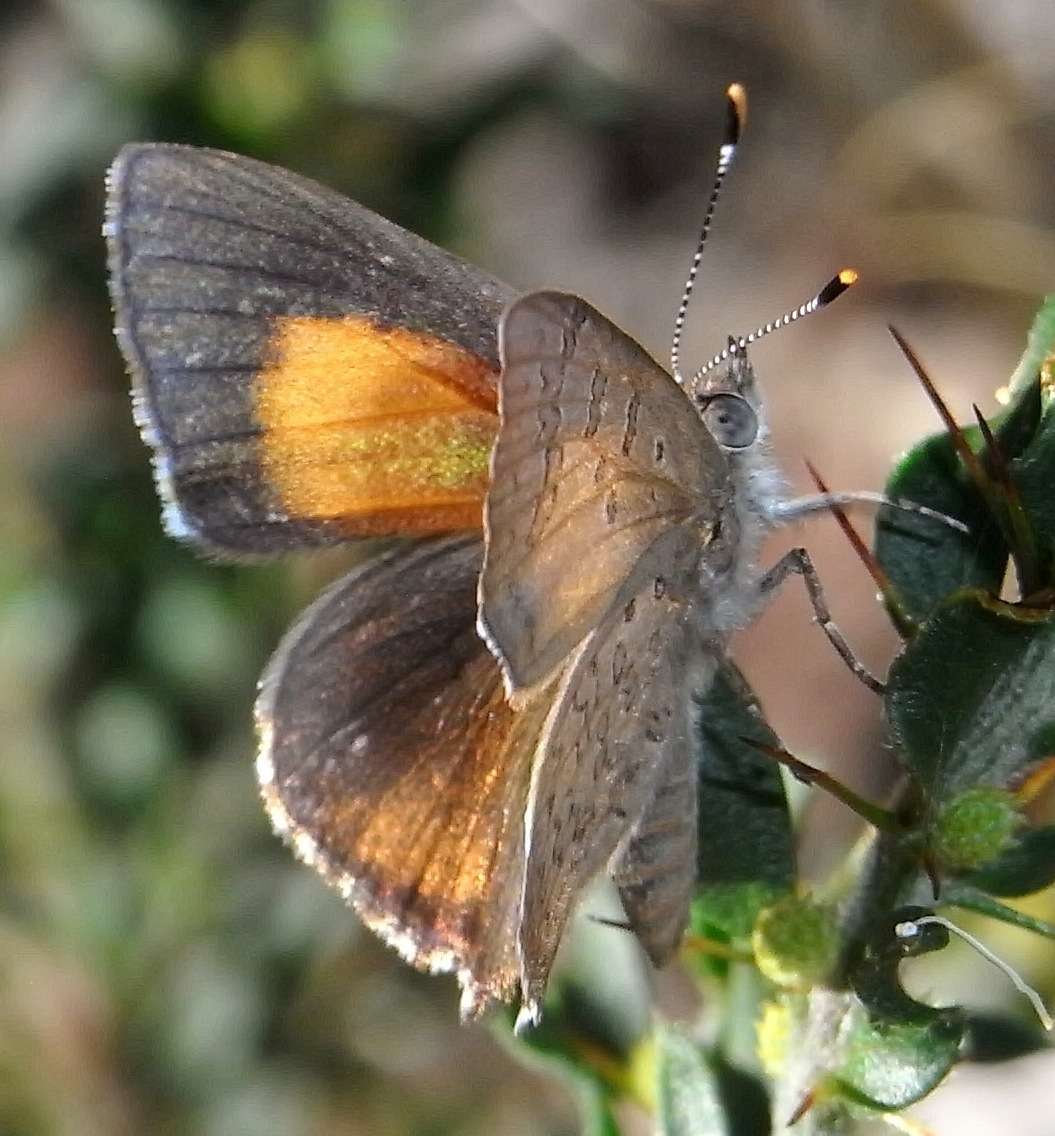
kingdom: Animalia
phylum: Arthropoda
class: Insecta
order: Lepidoptera
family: Lycaenidae
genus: Paralucia
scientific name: Paralucia pyrodiscus
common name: Fiery copper
